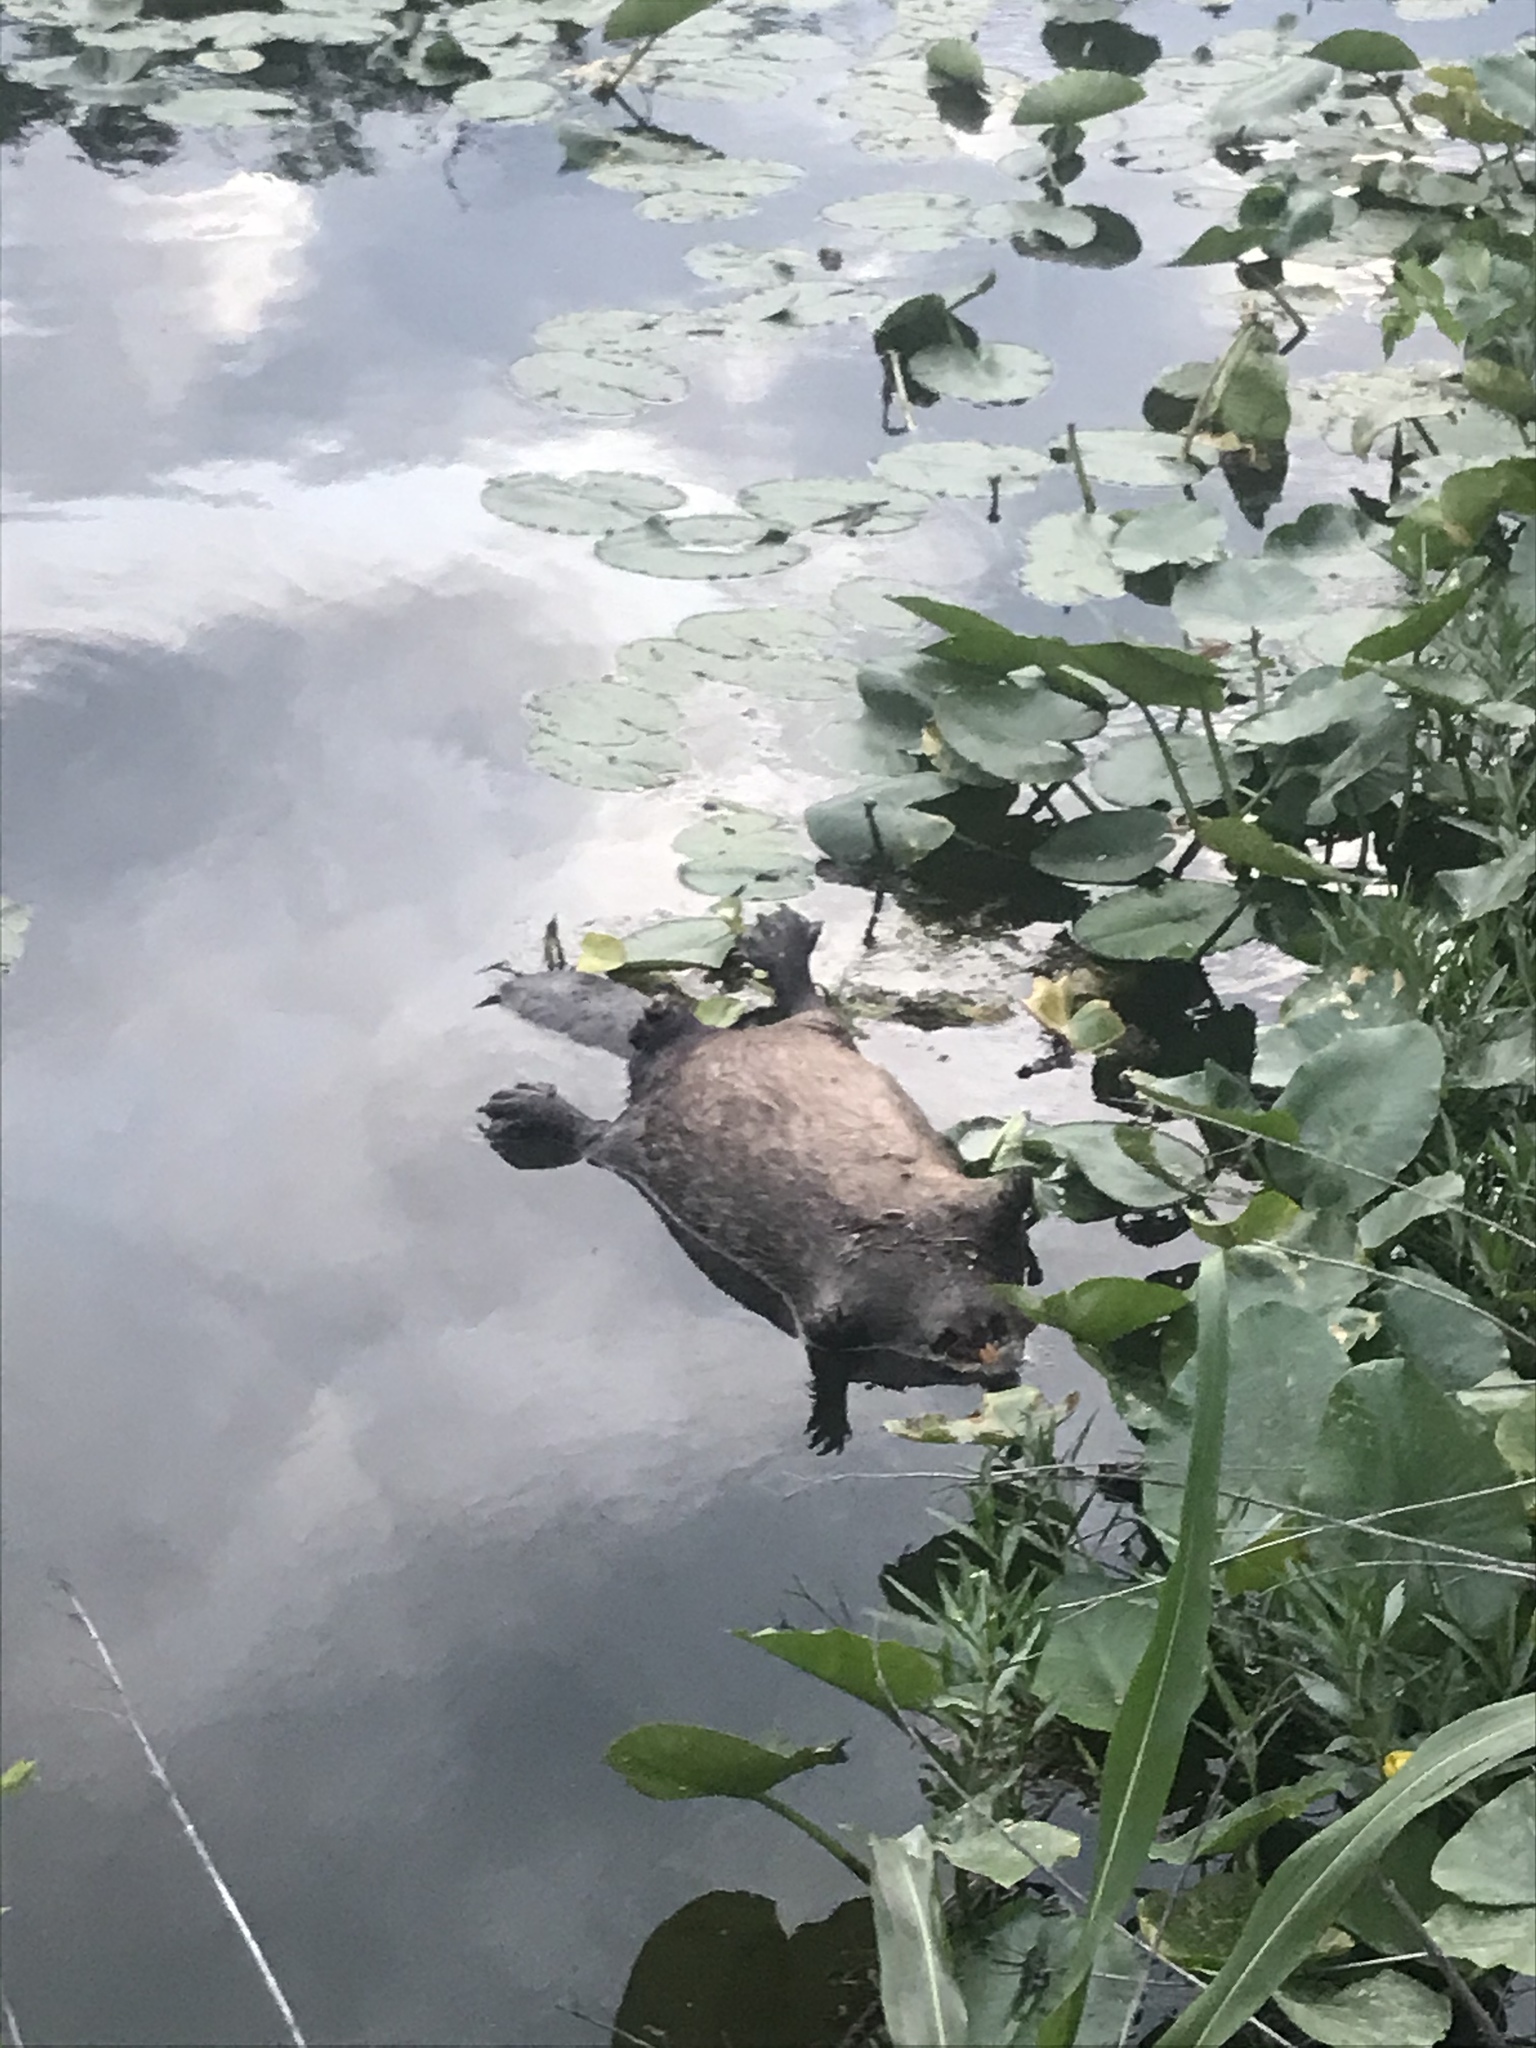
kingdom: Animalia
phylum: Chordata
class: Mammalia
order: Rodentia
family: Castoridae
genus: Castor
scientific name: Castor canadensis
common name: American beaver
